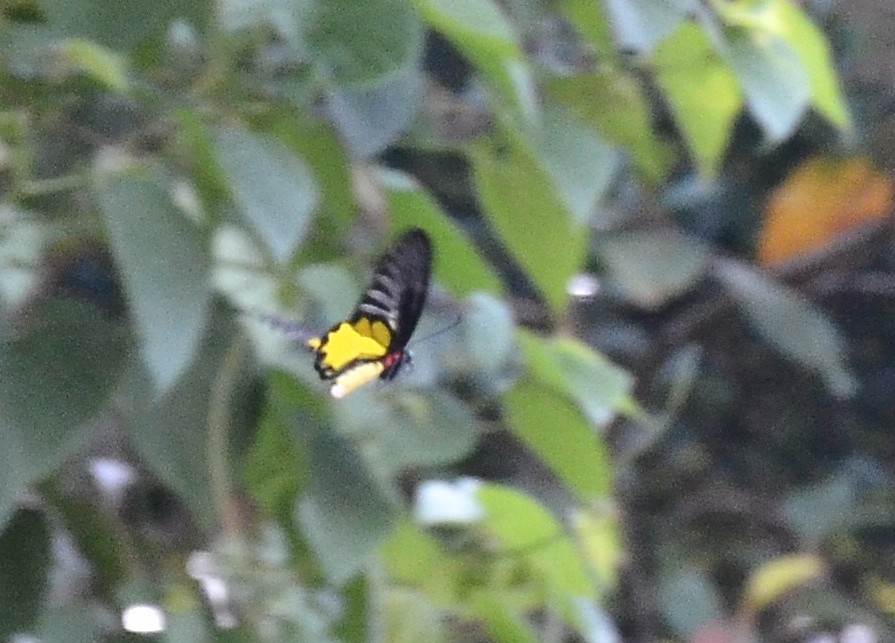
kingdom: Animalia
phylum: Arthropoda
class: Insecta
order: Lepidoptera
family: Papilionidae
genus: Troides
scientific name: Troides minos
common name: Malabar birdwing
